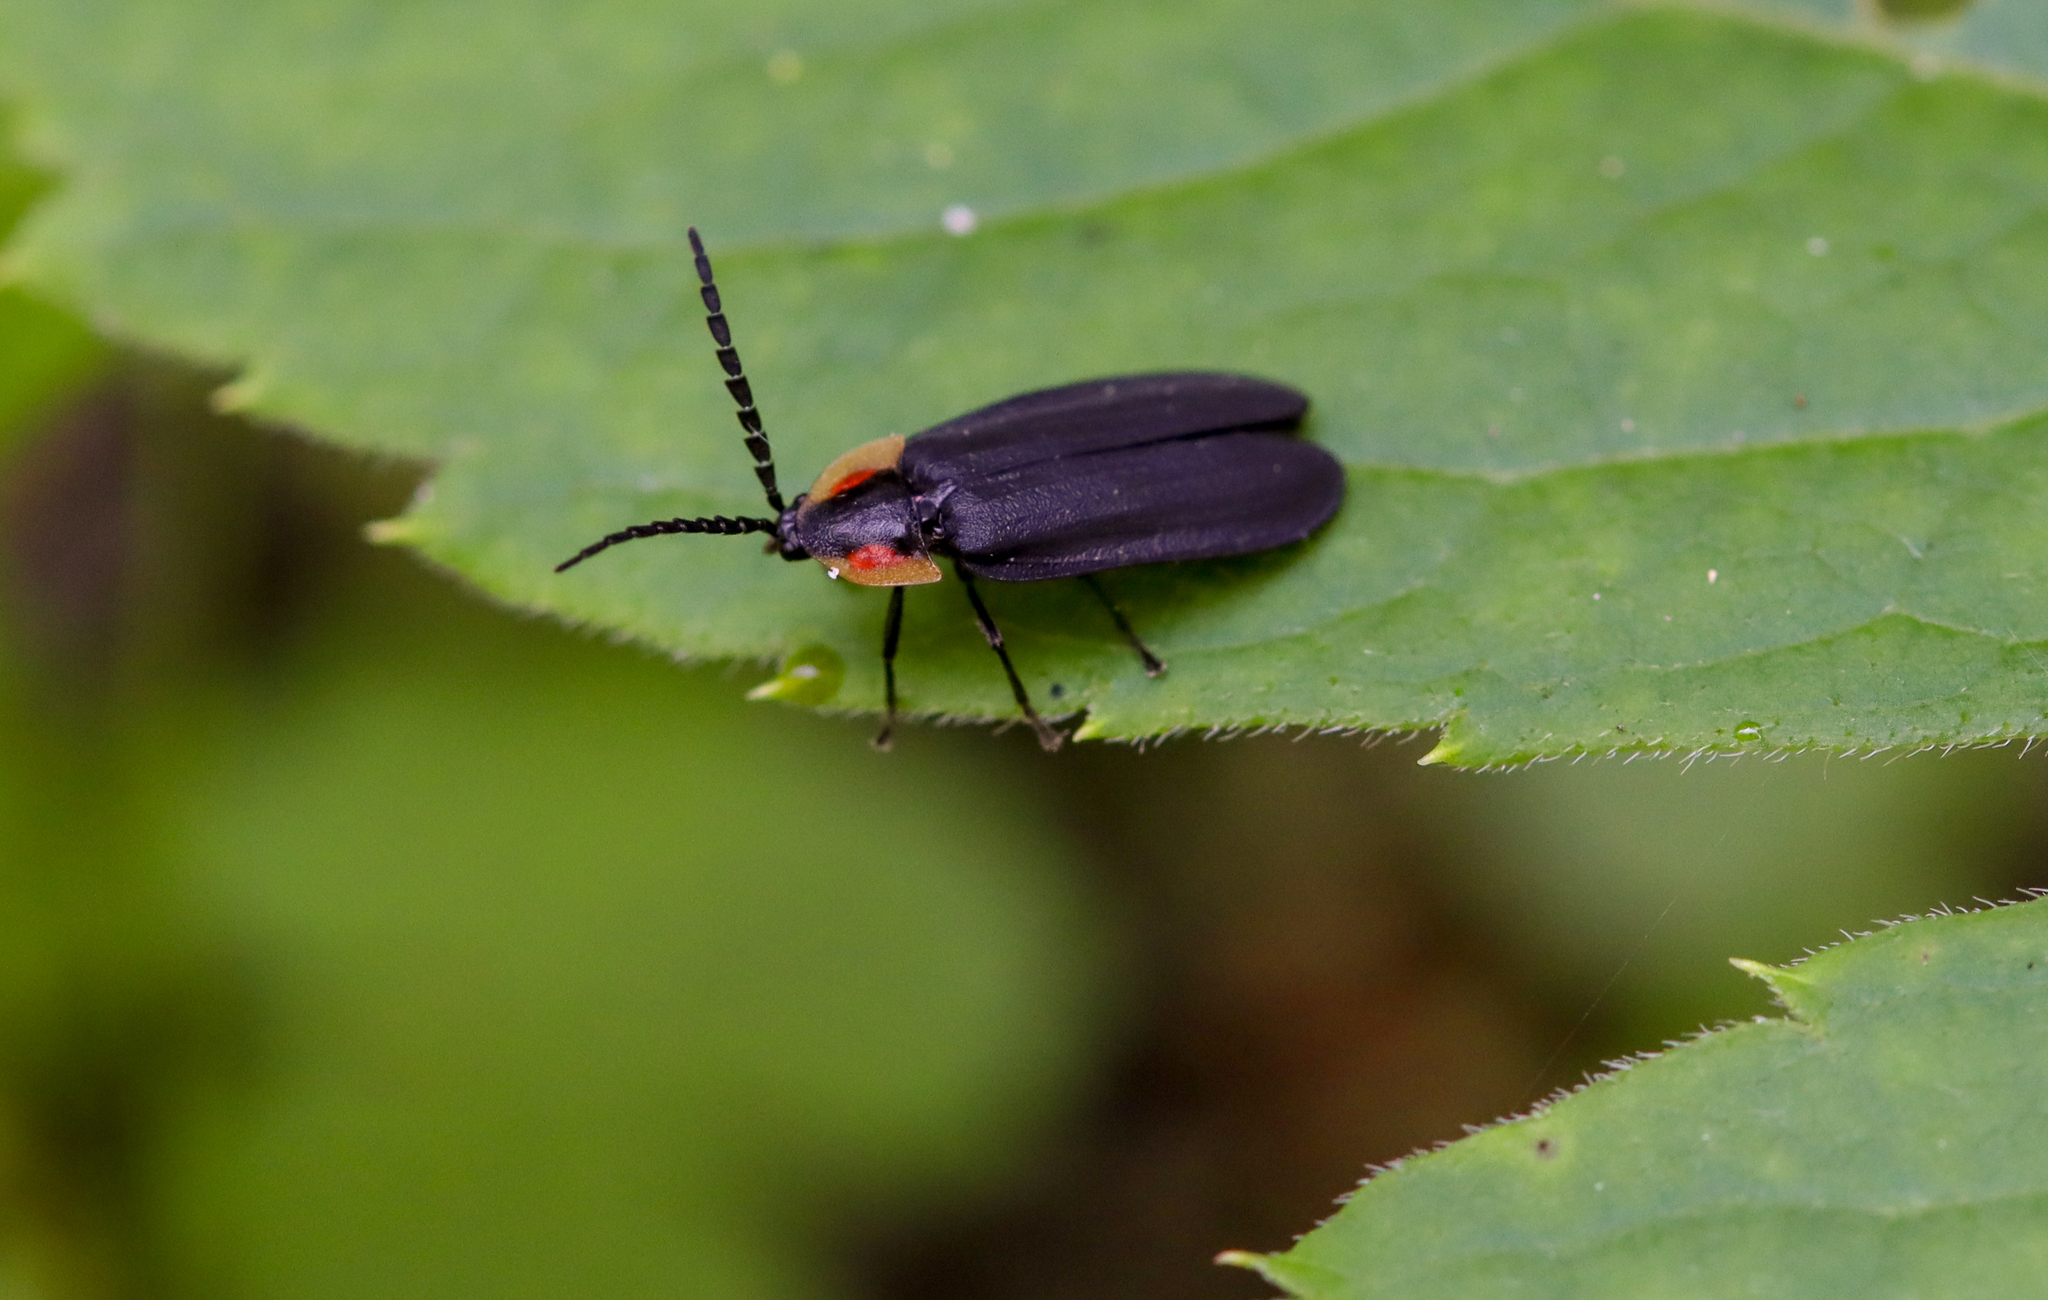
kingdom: Animalia
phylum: Arthropoda
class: Insecta
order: Coleoptera
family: Lampyridae
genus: Lucidota
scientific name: Lucidota atra
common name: Black firefly
